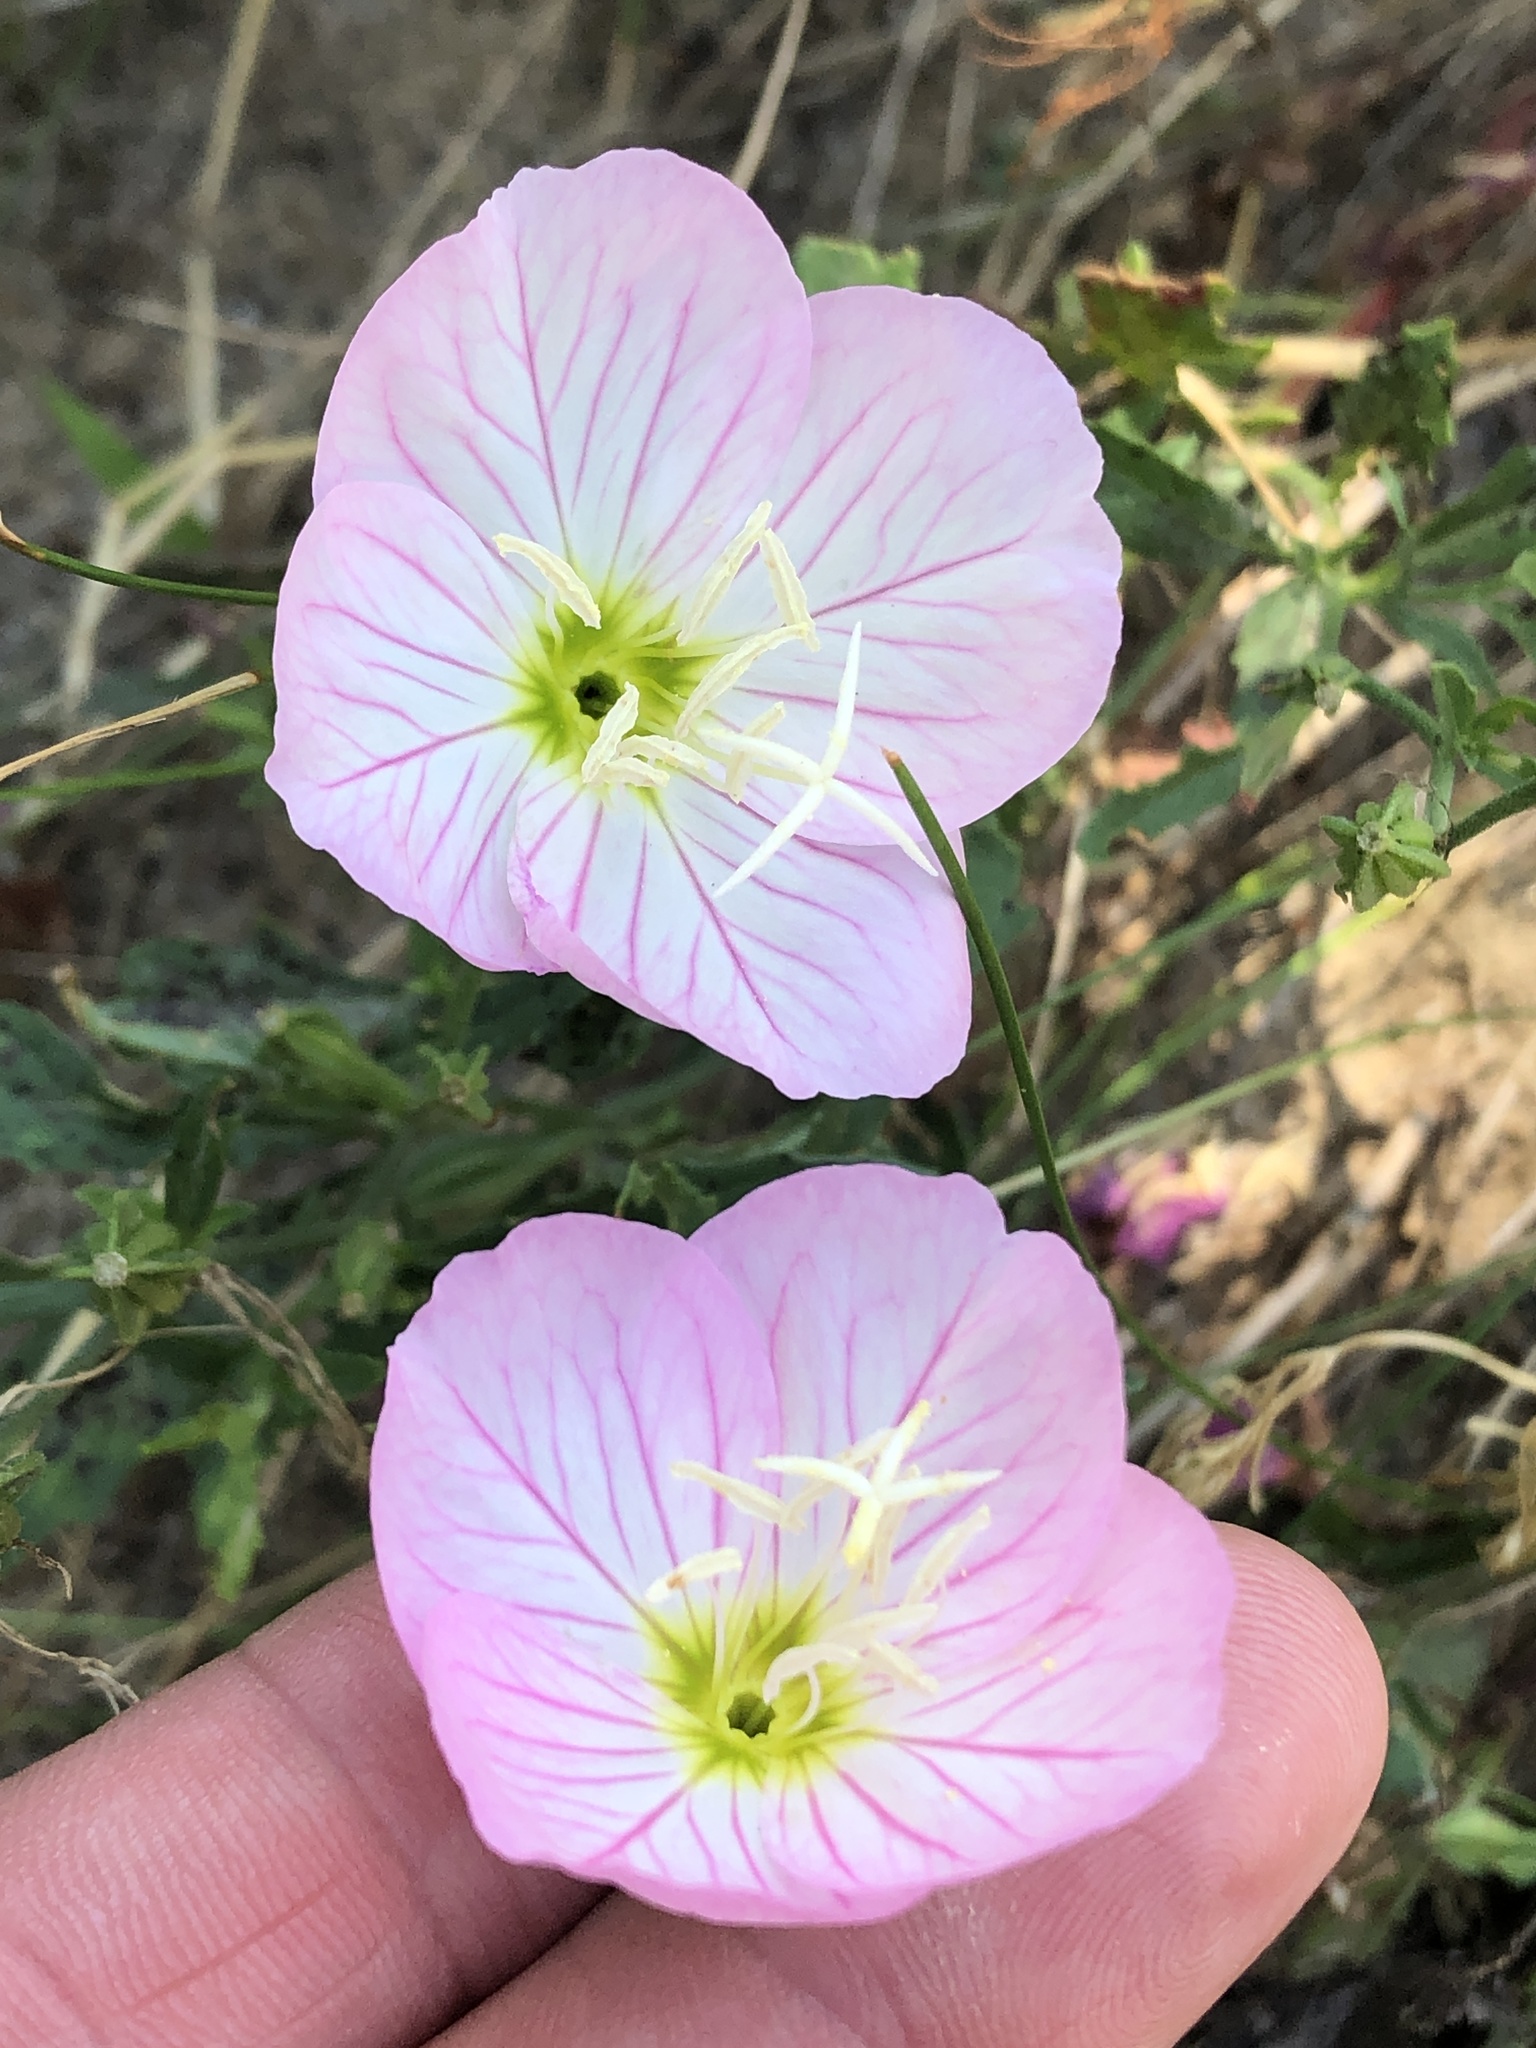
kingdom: Plantae
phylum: Tracheophyta
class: Magnoliopsida
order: Myrtales
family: Onagraceae
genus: Oenothera
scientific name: Oenothera speciosa
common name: White evening-primrose
